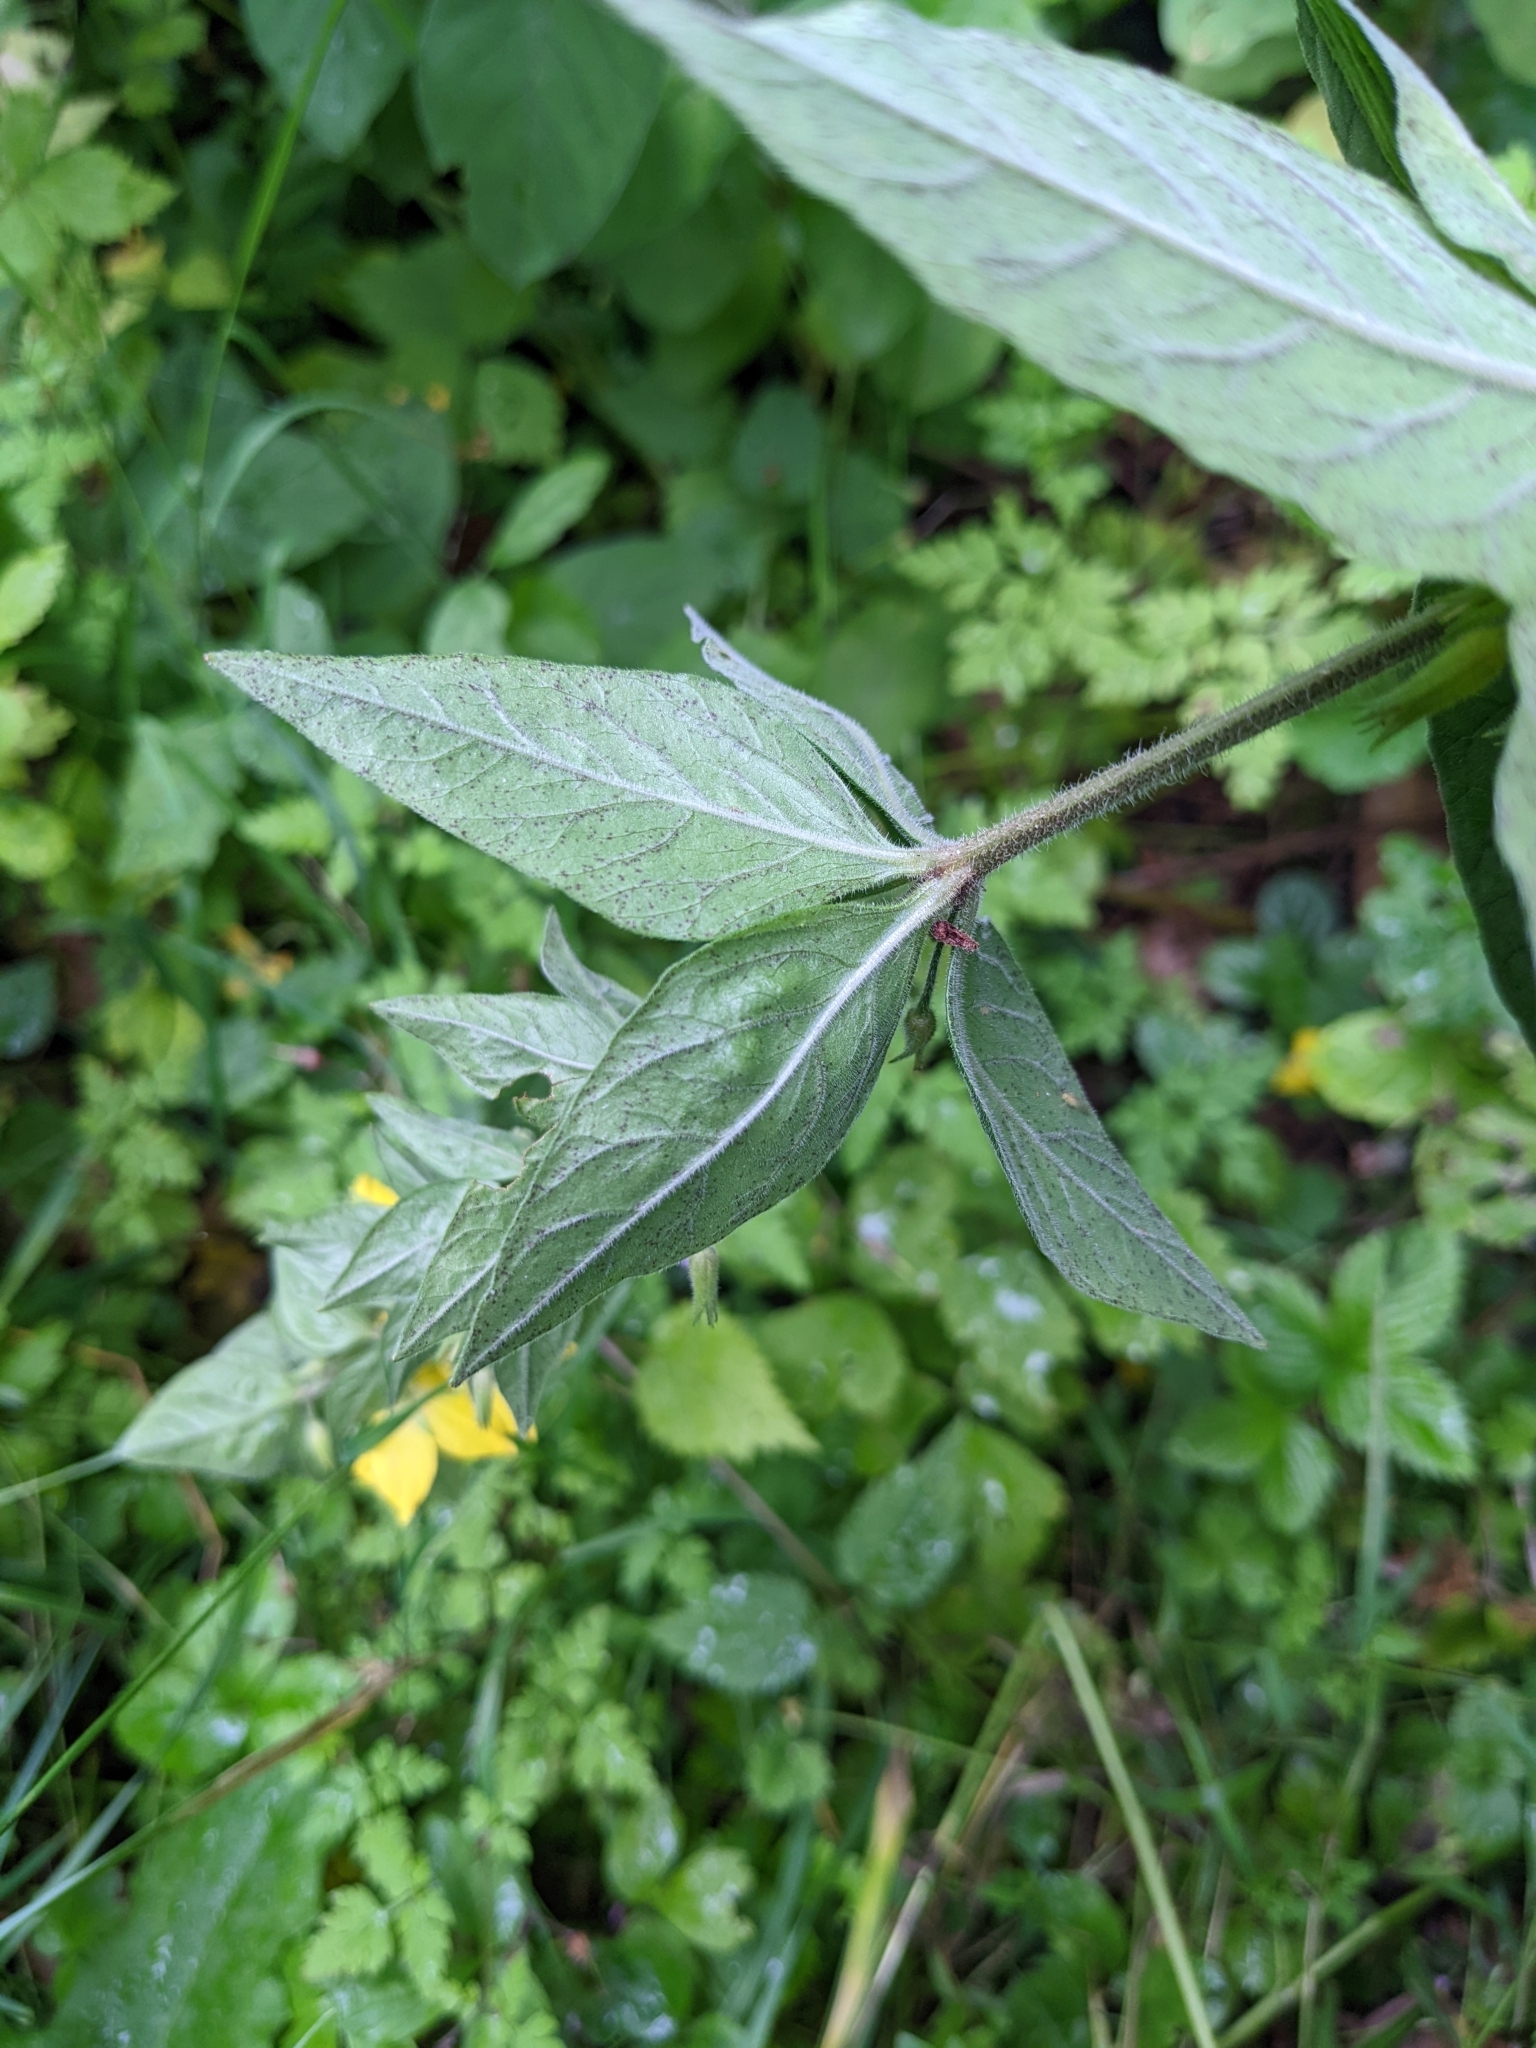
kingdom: Plantae
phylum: Tracheophyta
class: Magnoliopsida
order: Ericales
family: Primulaceae
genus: Lysimachia
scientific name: Lysimachia punctata
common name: Dotted loosestrife
